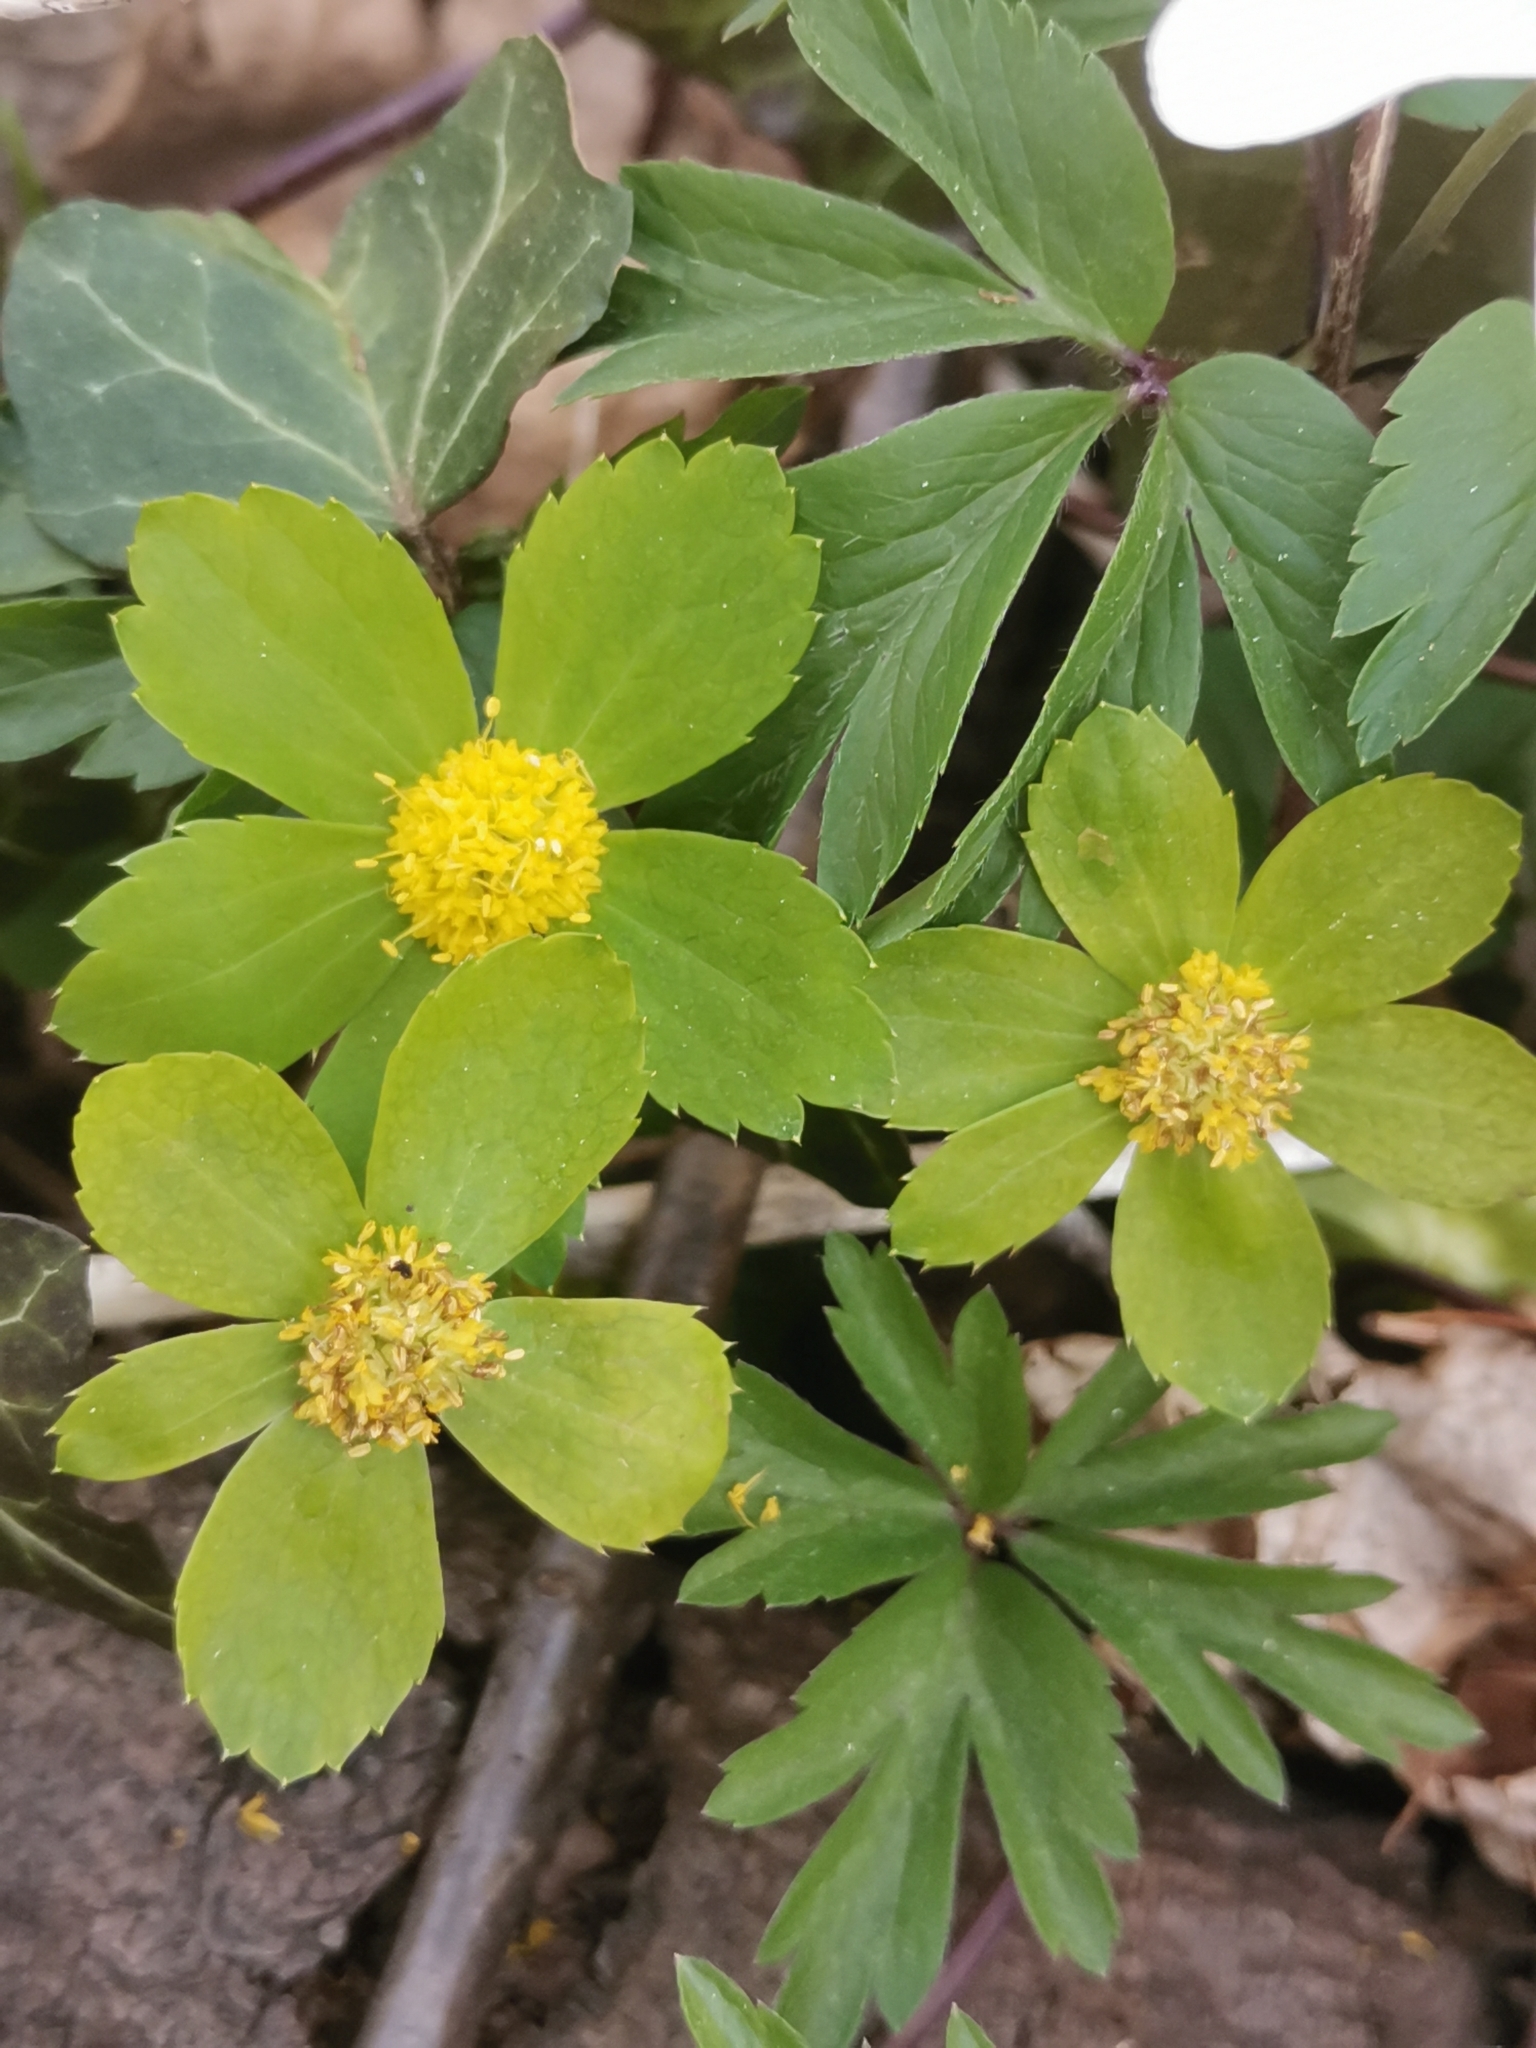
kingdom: Plantae
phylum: Tracheophyta
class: Magnoliopsida
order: Apiales
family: Apiaceae
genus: Sanicula
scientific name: Sanicula epipactis
